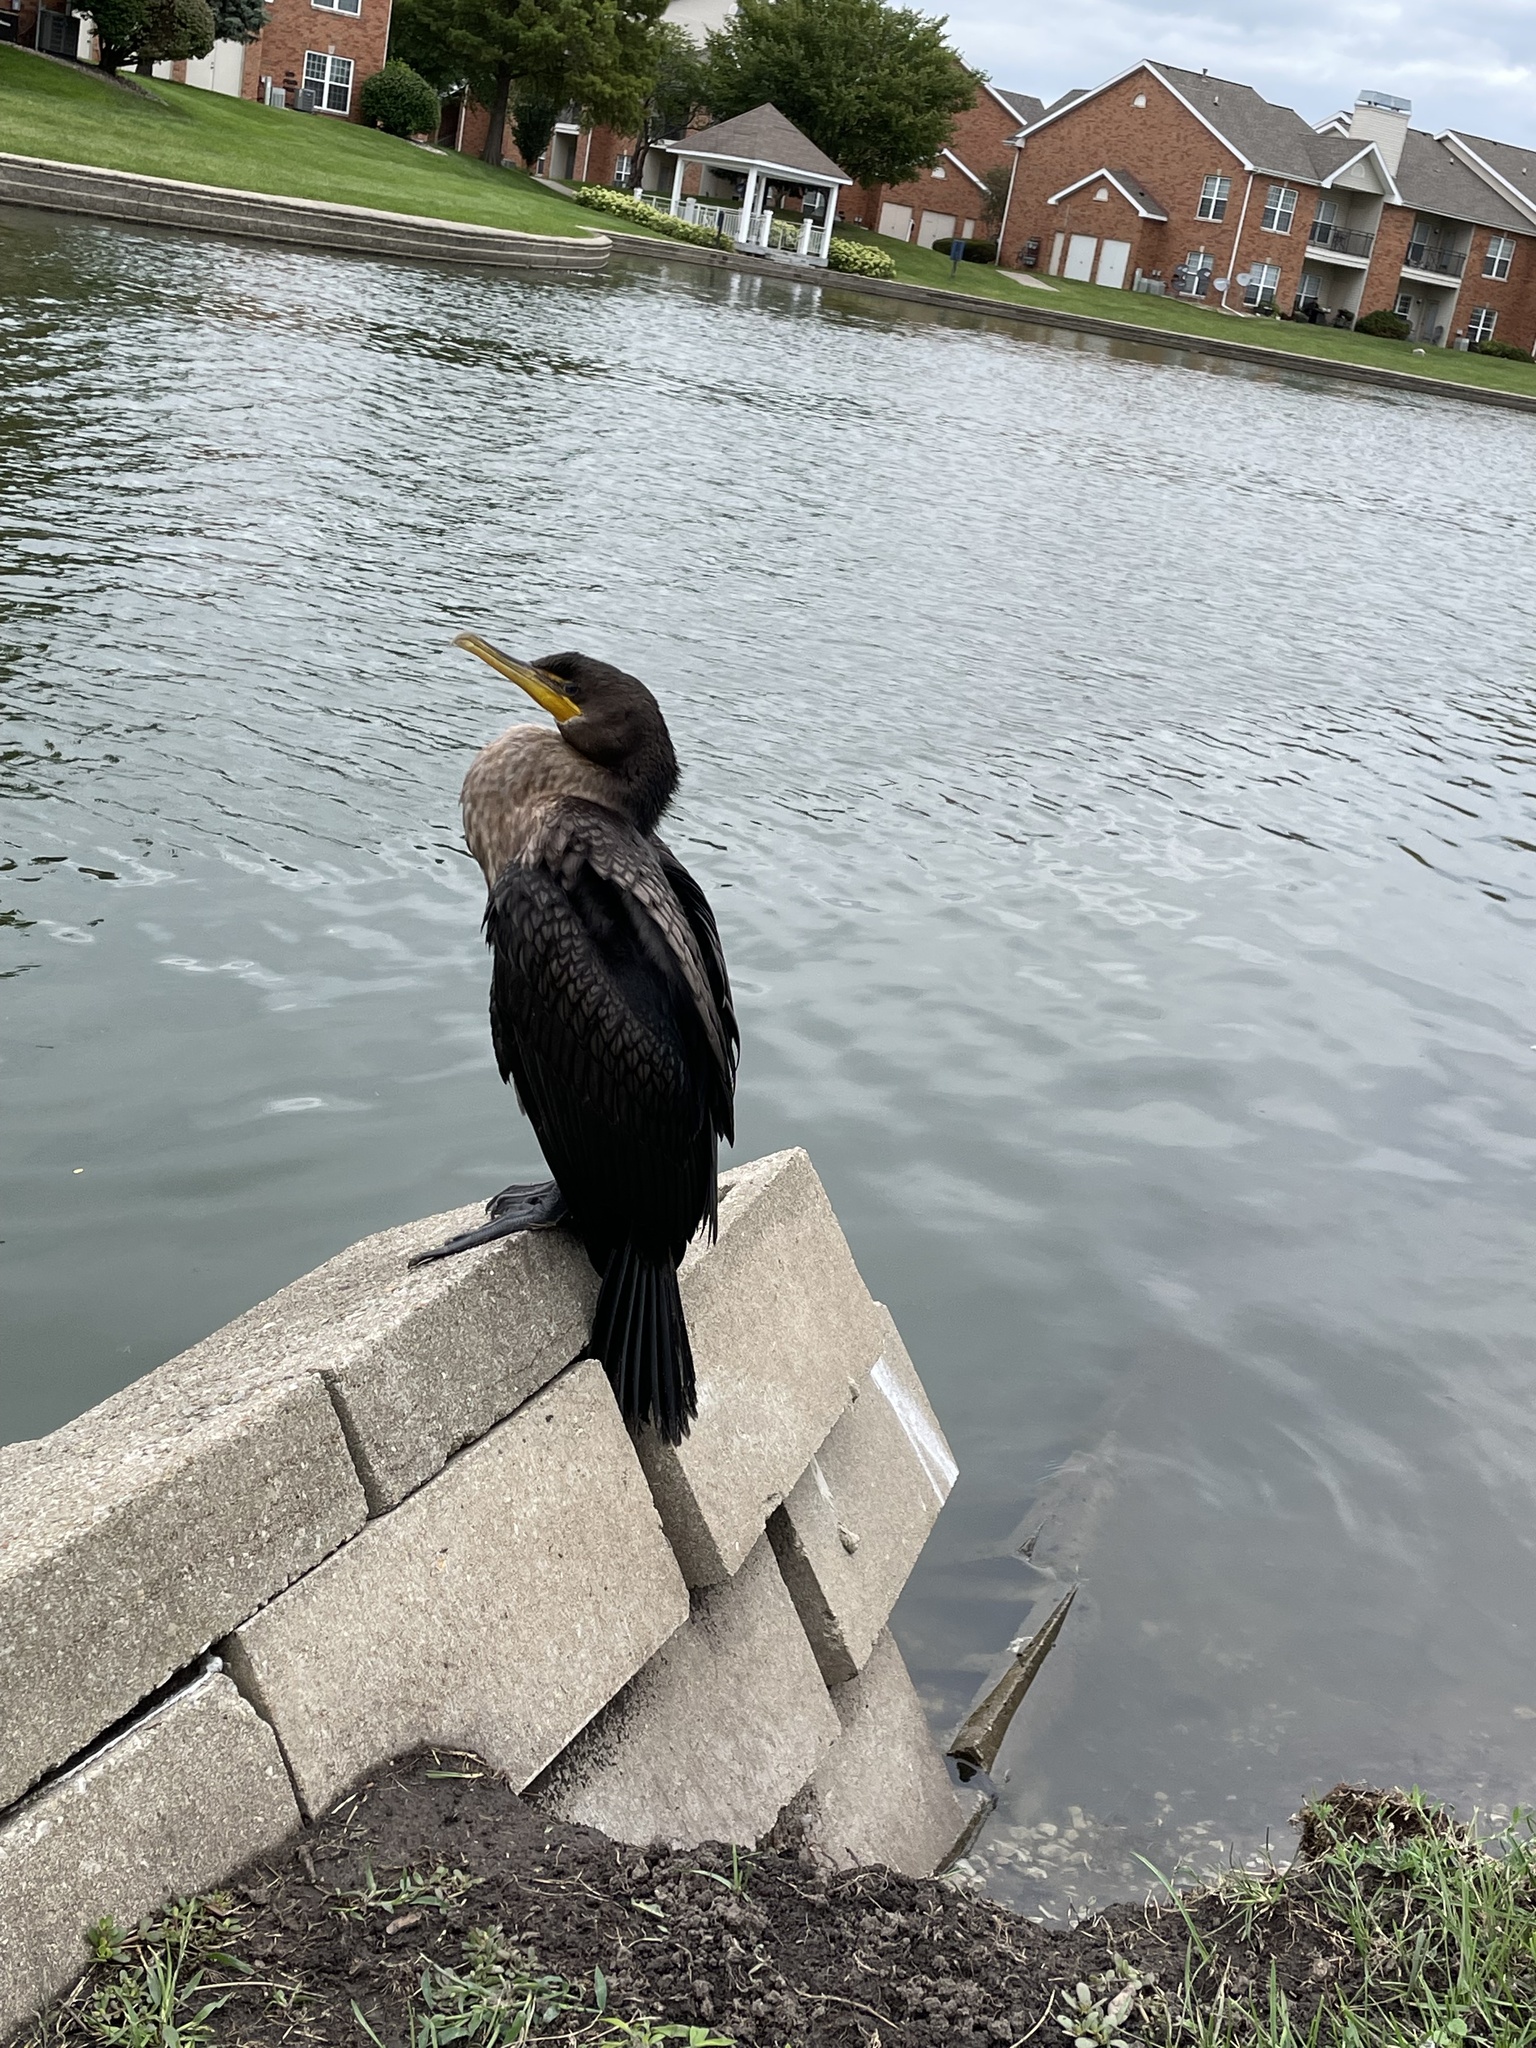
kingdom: Animalia
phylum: Chordata
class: Aves
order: Suliformes
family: Phalacrocoracidae
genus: Phalacrocorax
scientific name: Phalacrocorax auritus
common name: Double-crested cormorant
